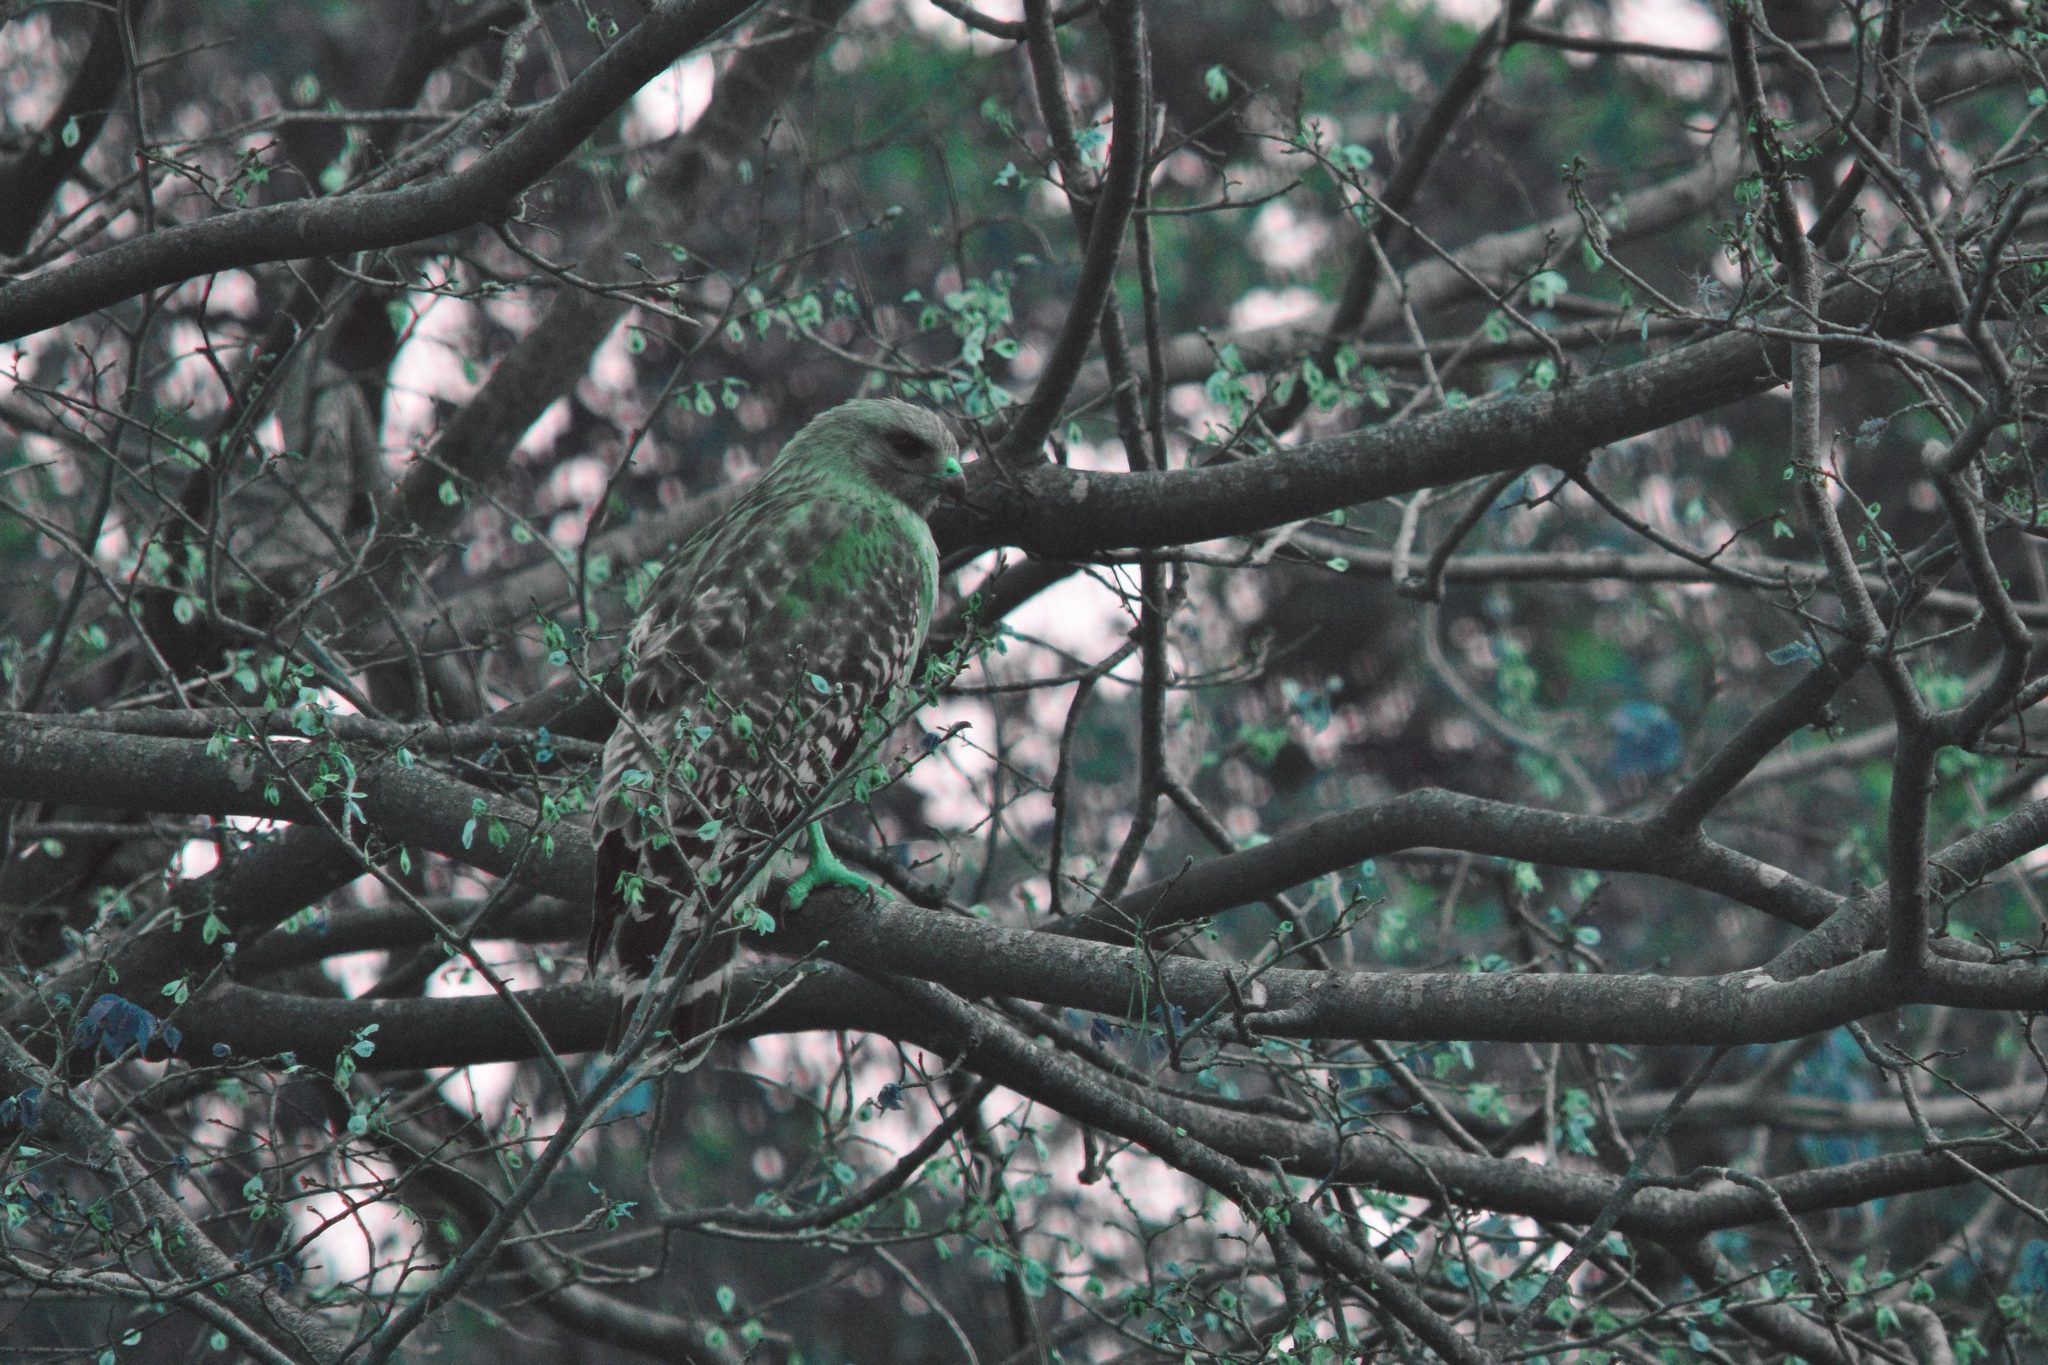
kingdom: Animalia
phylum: Chordata
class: Aves
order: Accipitriformes
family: Accipitridae
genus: Buteo
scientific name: Buteo lineatus
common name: Red-shouldered hawk
